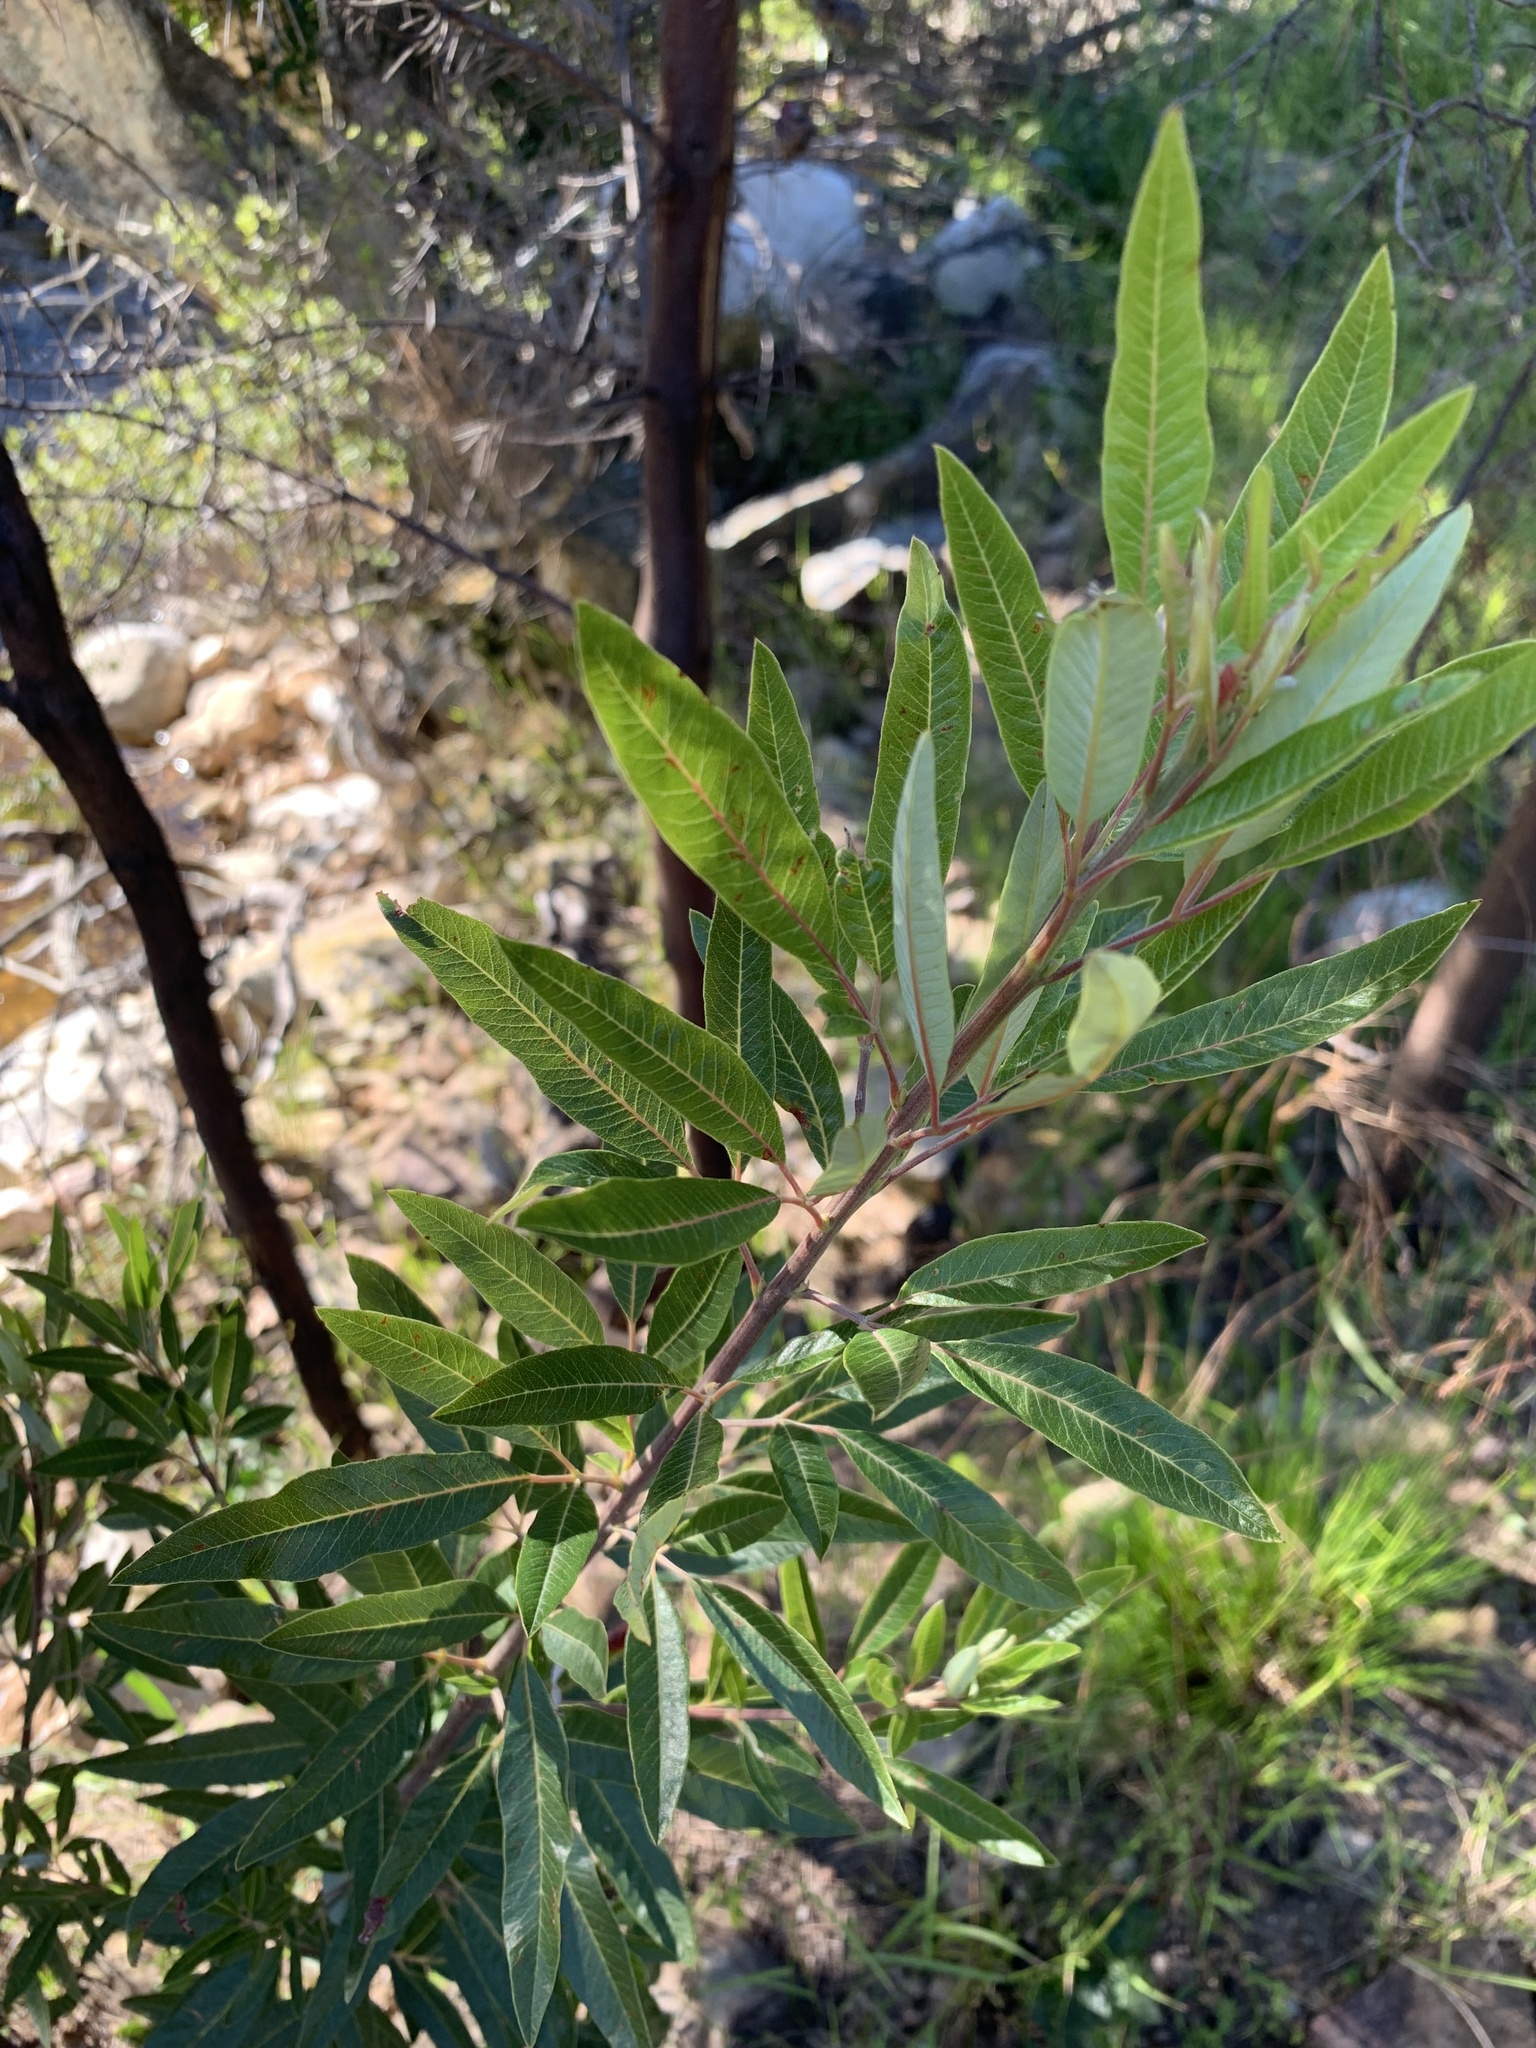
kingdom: Plantae
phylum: Tracheophyta
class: Magnoliopsida
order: Sapindales
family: Anacardiaceae
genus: Searsia
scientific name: Searsia angustifolia
